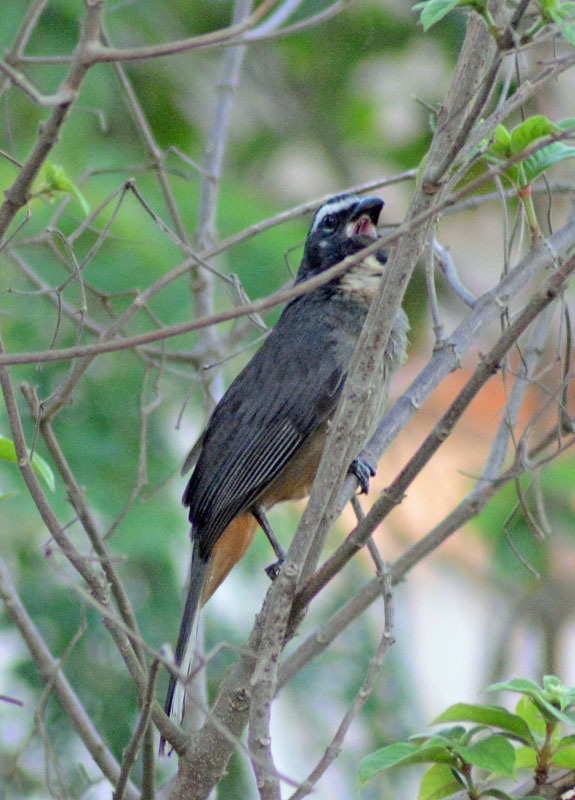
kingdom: Animalia
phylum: Chordata
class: Aves
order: Passeriformes
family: Thraupidae
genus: Saltator
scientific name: Saltator grandis
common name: Cinnamon-bellied saltator
